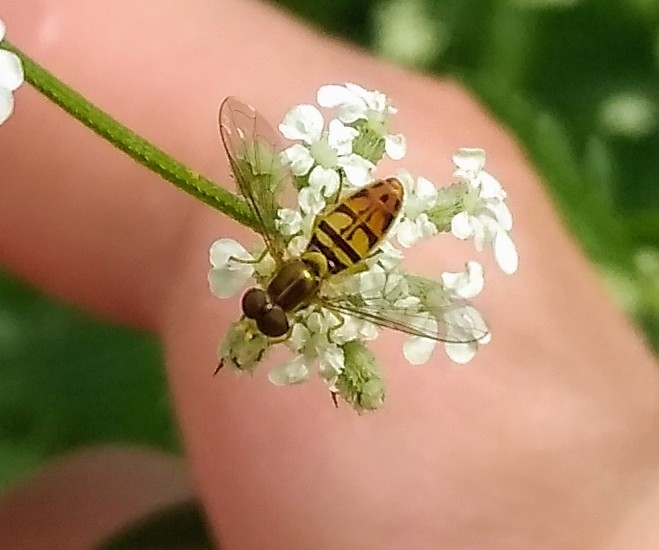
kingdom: Animalia
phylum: Arthropoda
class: Insecta
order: Diptera
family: Syrphidae
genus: Toxomerus
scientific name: Toxomerus marginatus
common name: Syrphid fly
